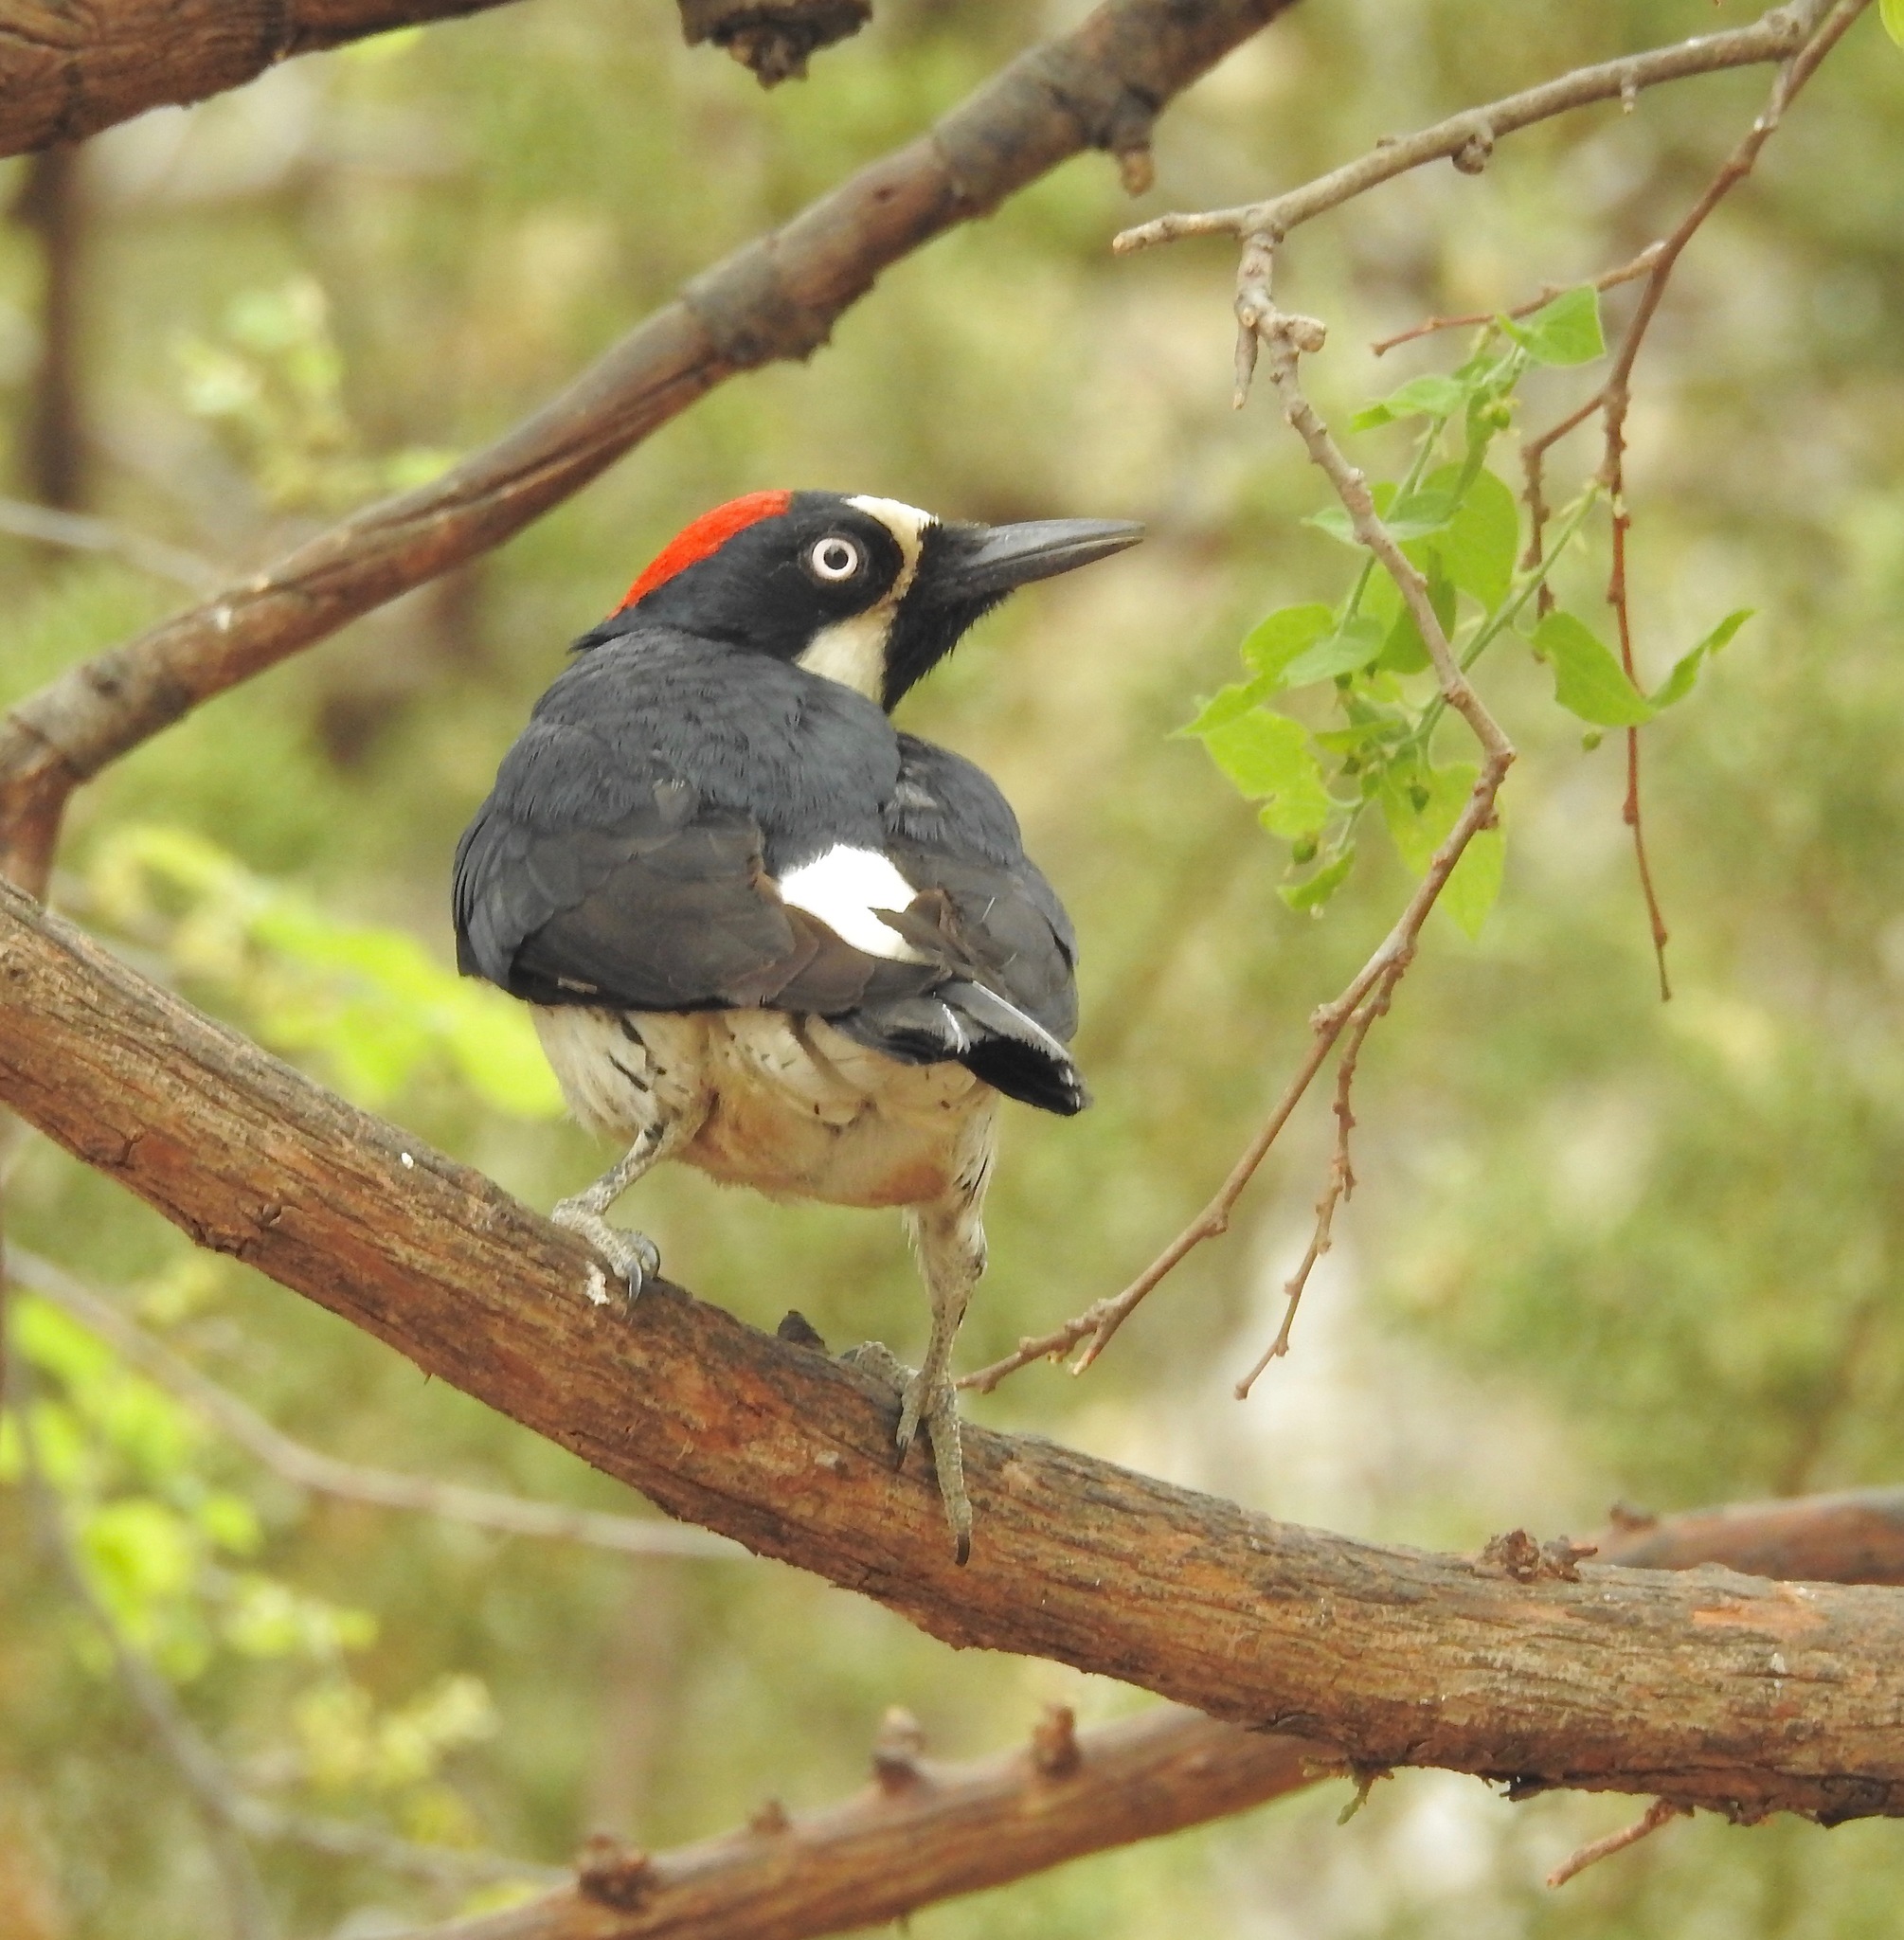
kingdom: Animalia
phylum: Chordata
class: Aves
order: Piciformes
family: Picidae
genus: Melanerpes
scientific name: Melanerpes formicivorus
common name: Acorn woodpecker
